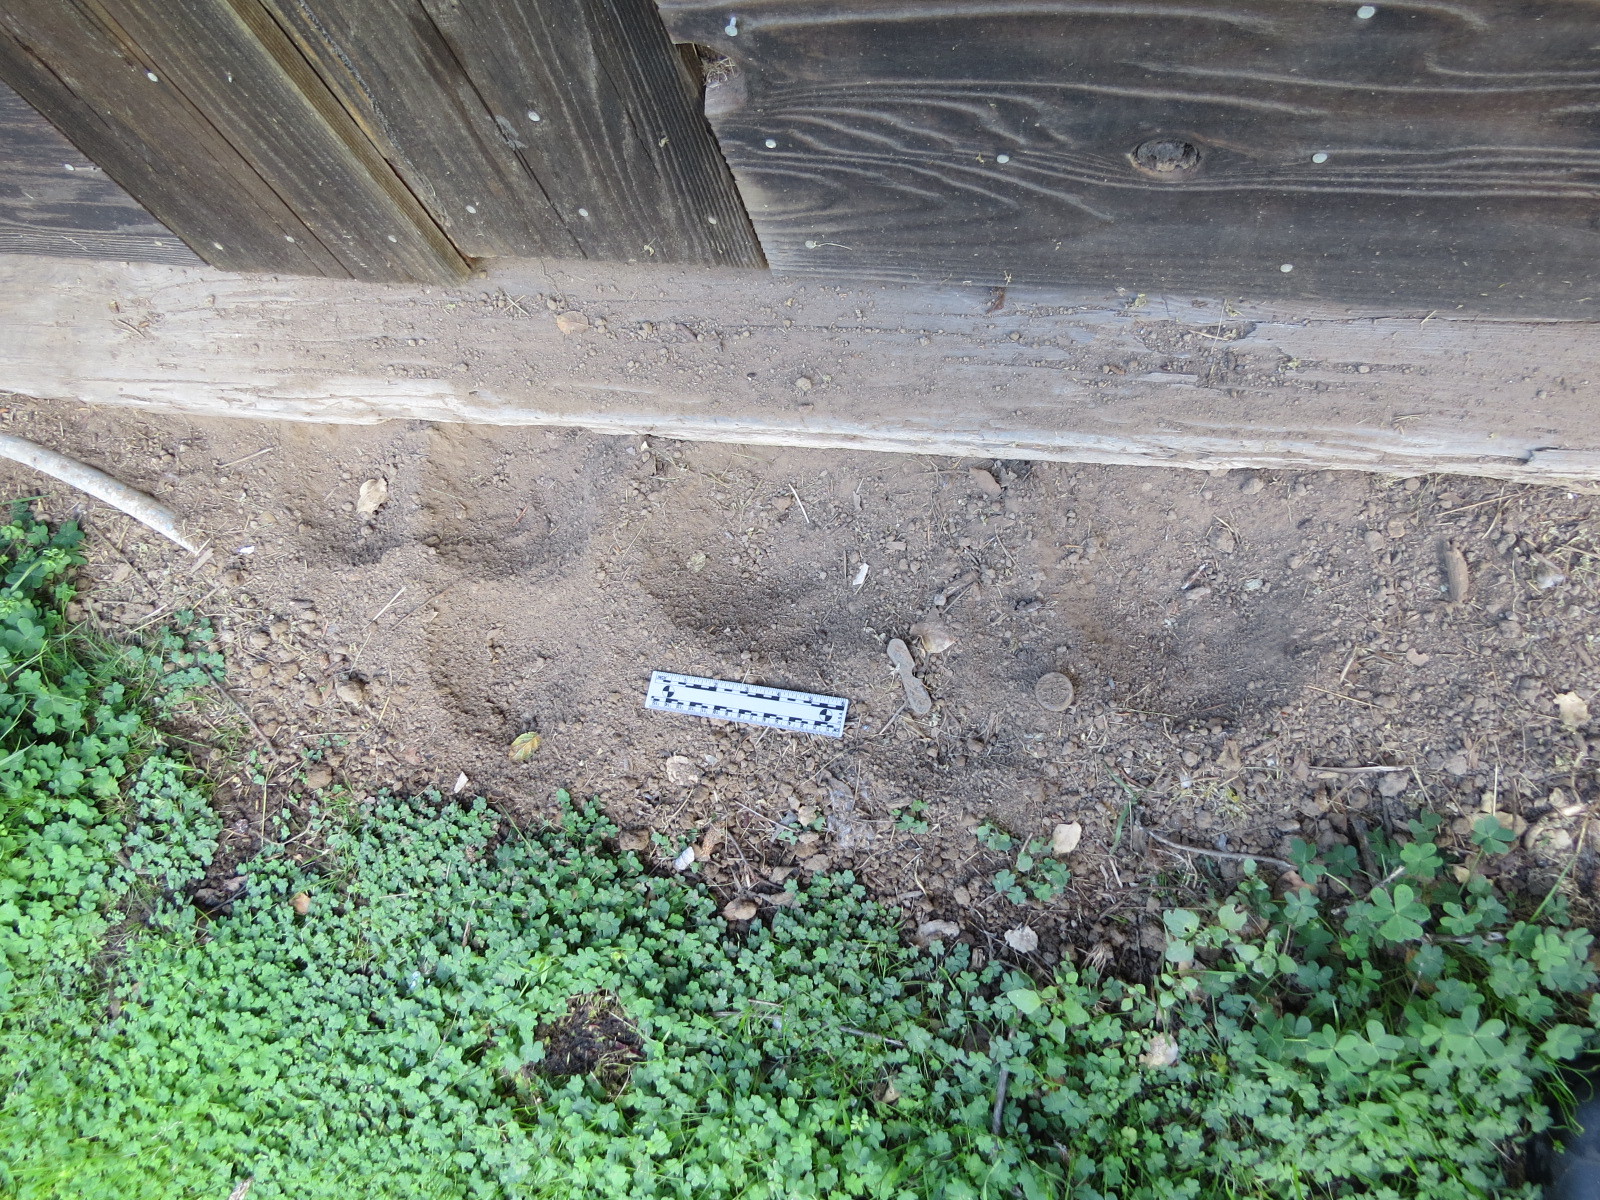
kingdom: Animalia
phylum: Chordata
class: Aves
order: Galliformes
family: Odontophoridae
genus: Callipepla
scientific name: Callipepla californica
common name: California quail
